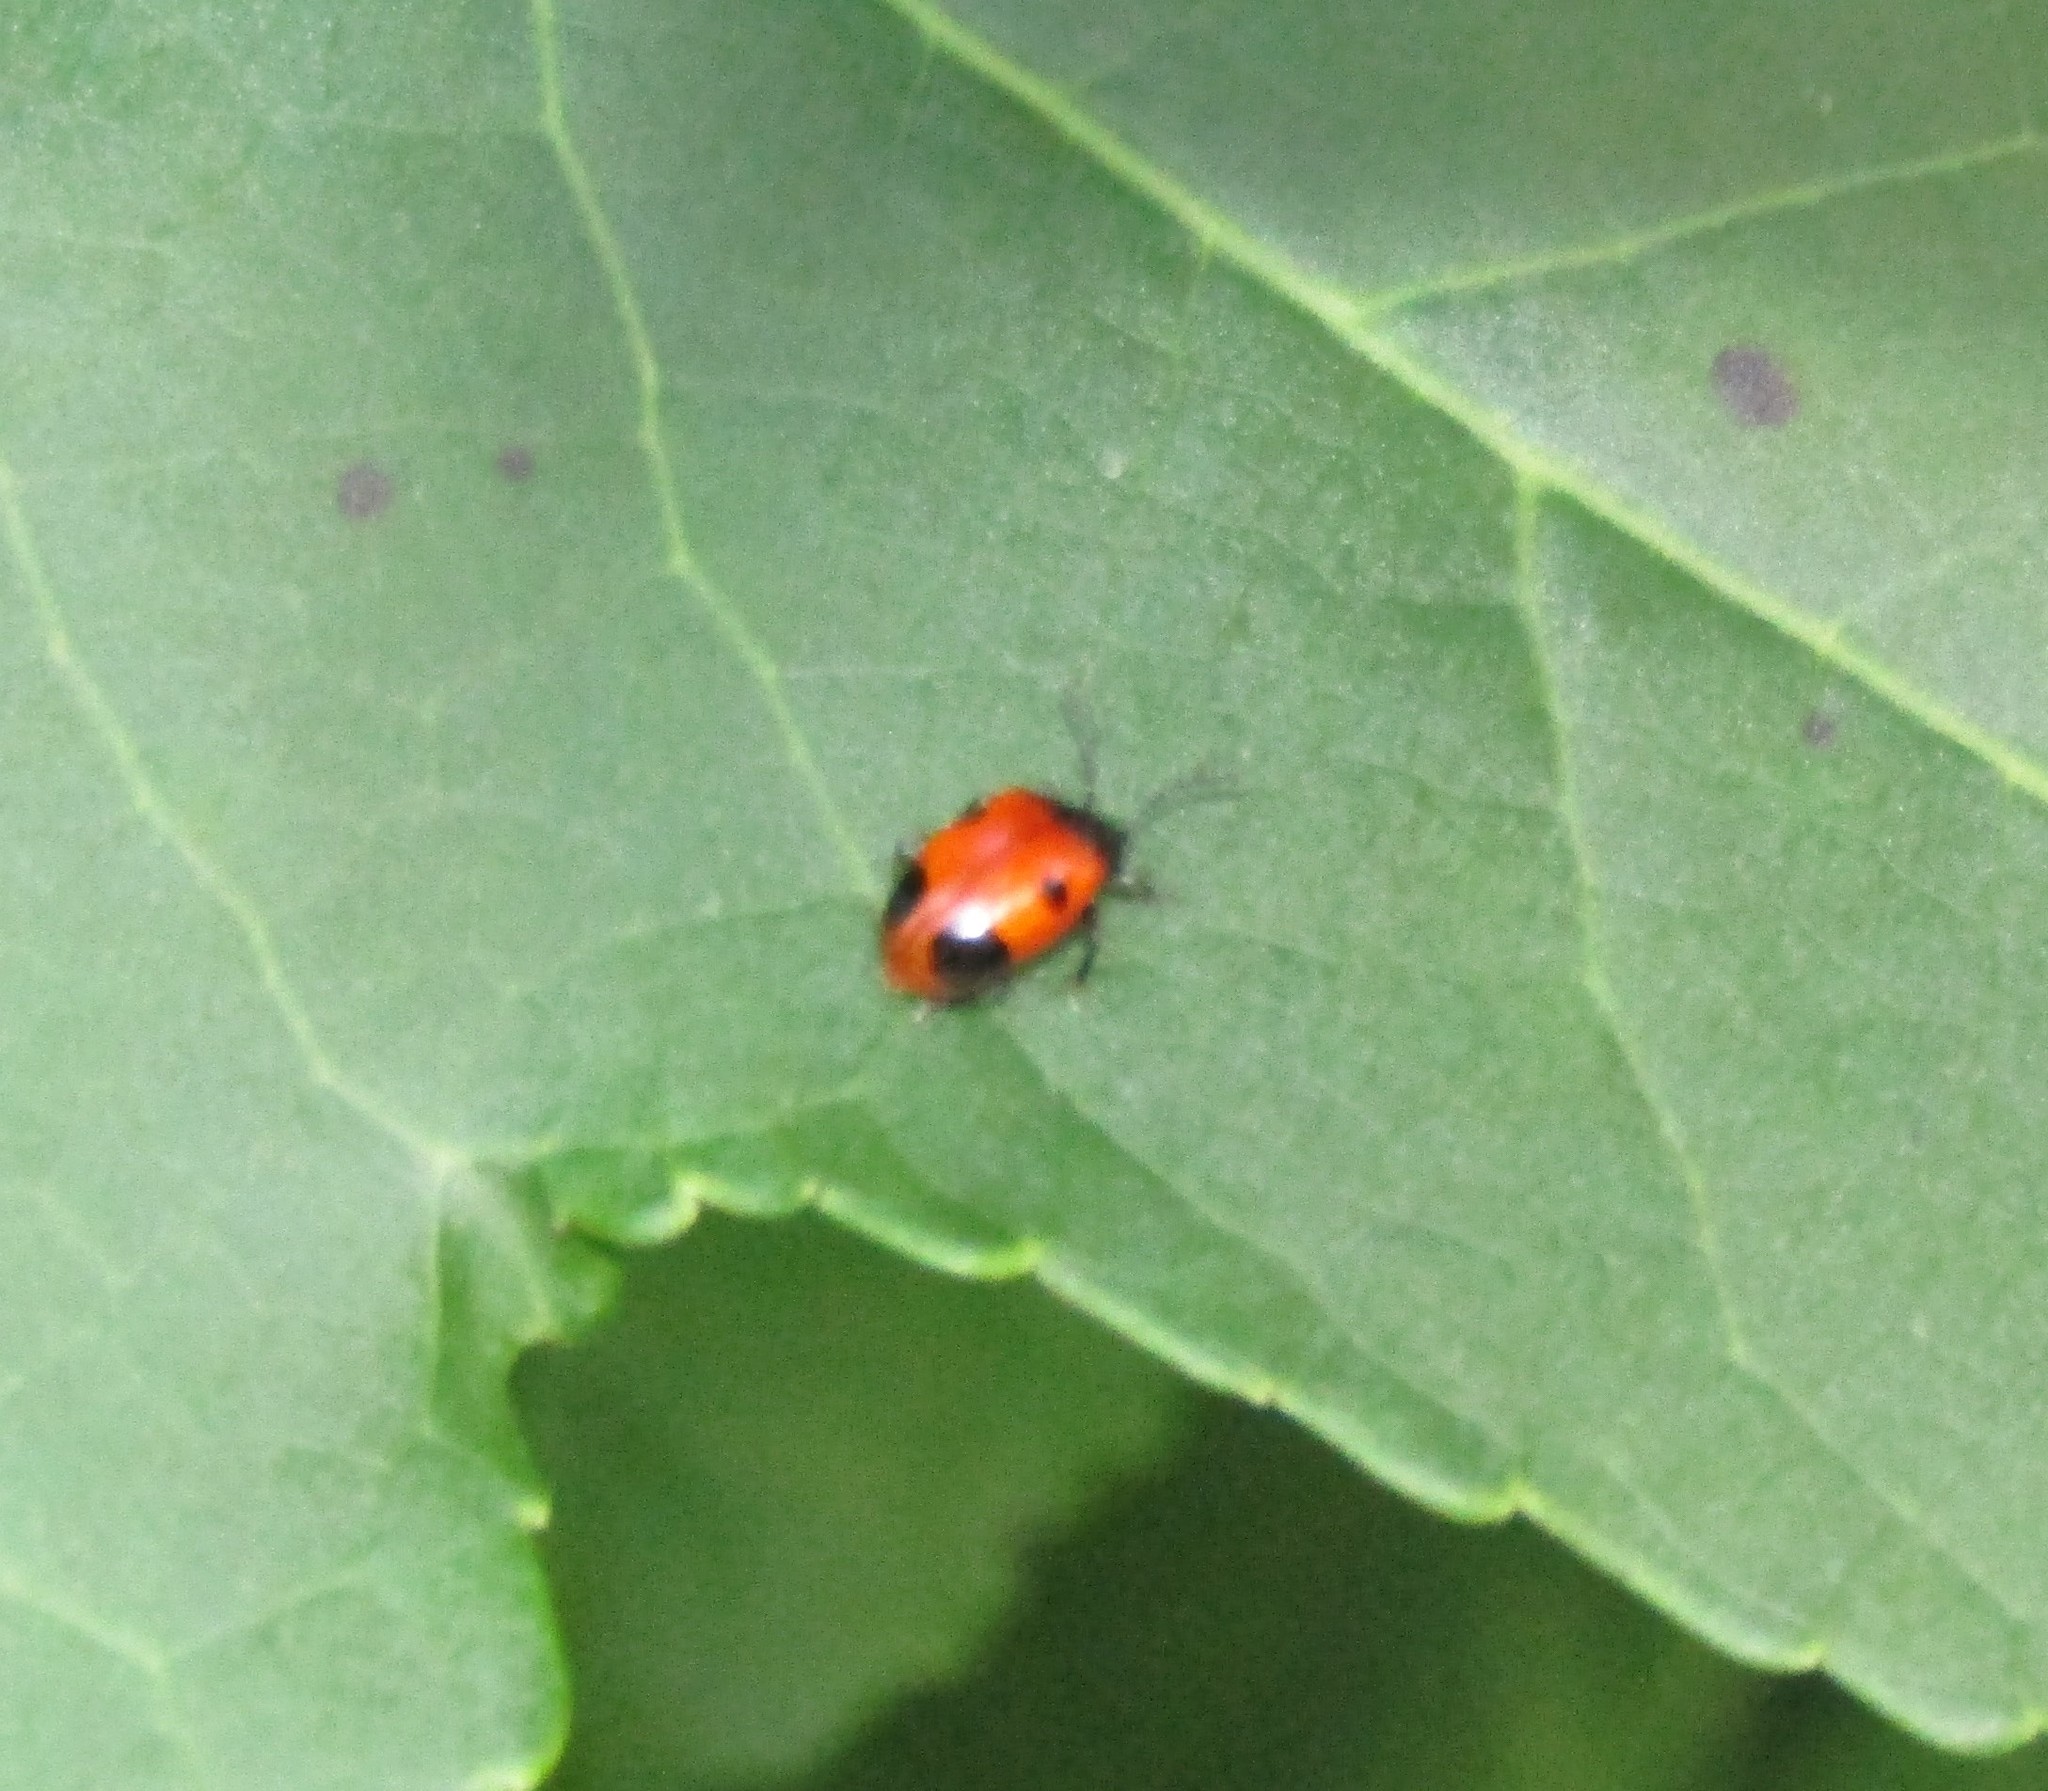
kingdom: Animalia
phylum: Arthropoda
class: Insecta
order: Coleoptera
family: Endomychidae
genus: Endomychus
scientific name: Endomychus biguttatus
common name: Handsome fungus beetle
